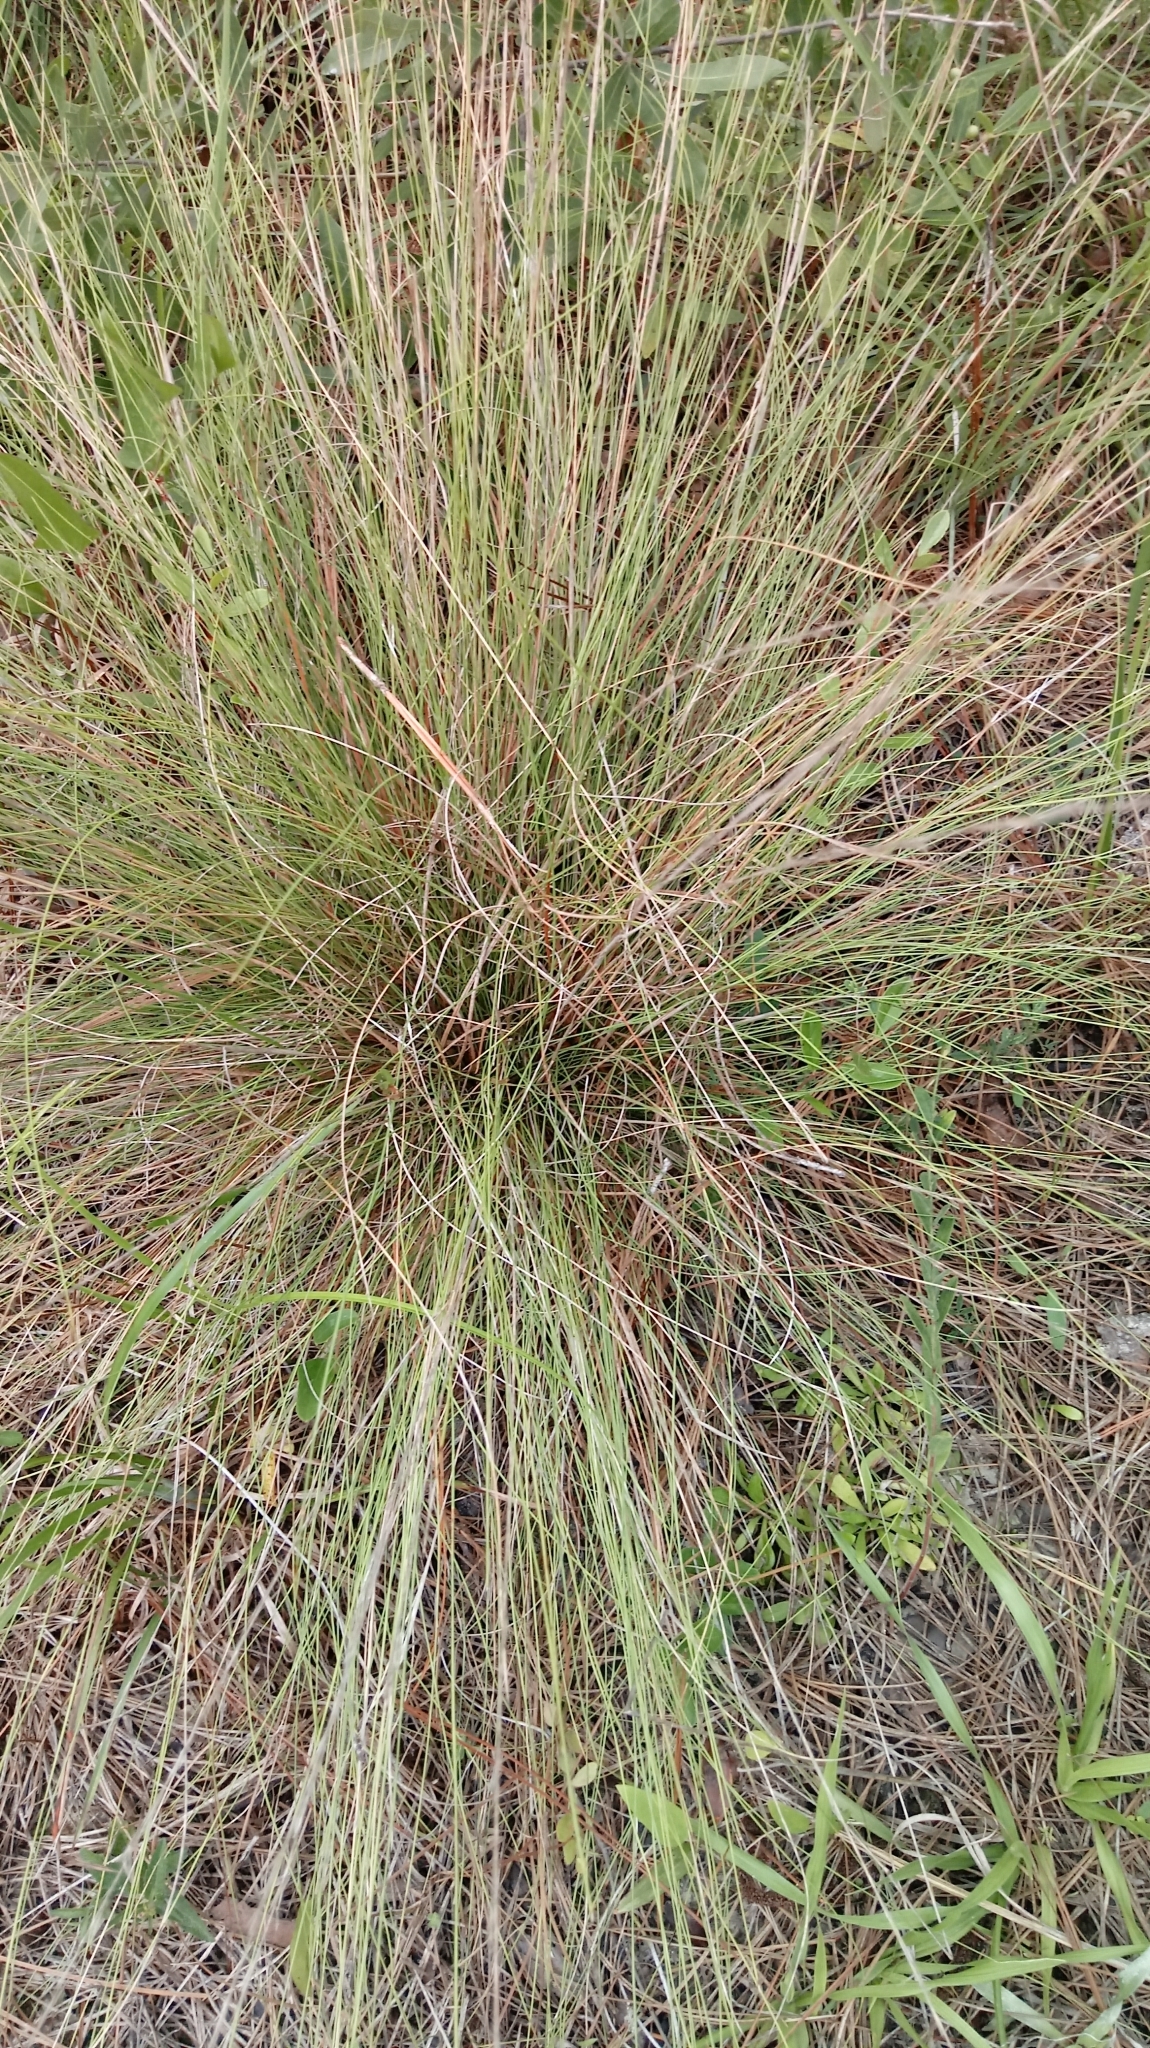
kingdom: Plantae
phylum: Tracheophyta
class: Liliopsida
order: Poales
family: Poaceae
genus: Aristida
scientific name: Aristida beyrichiana
